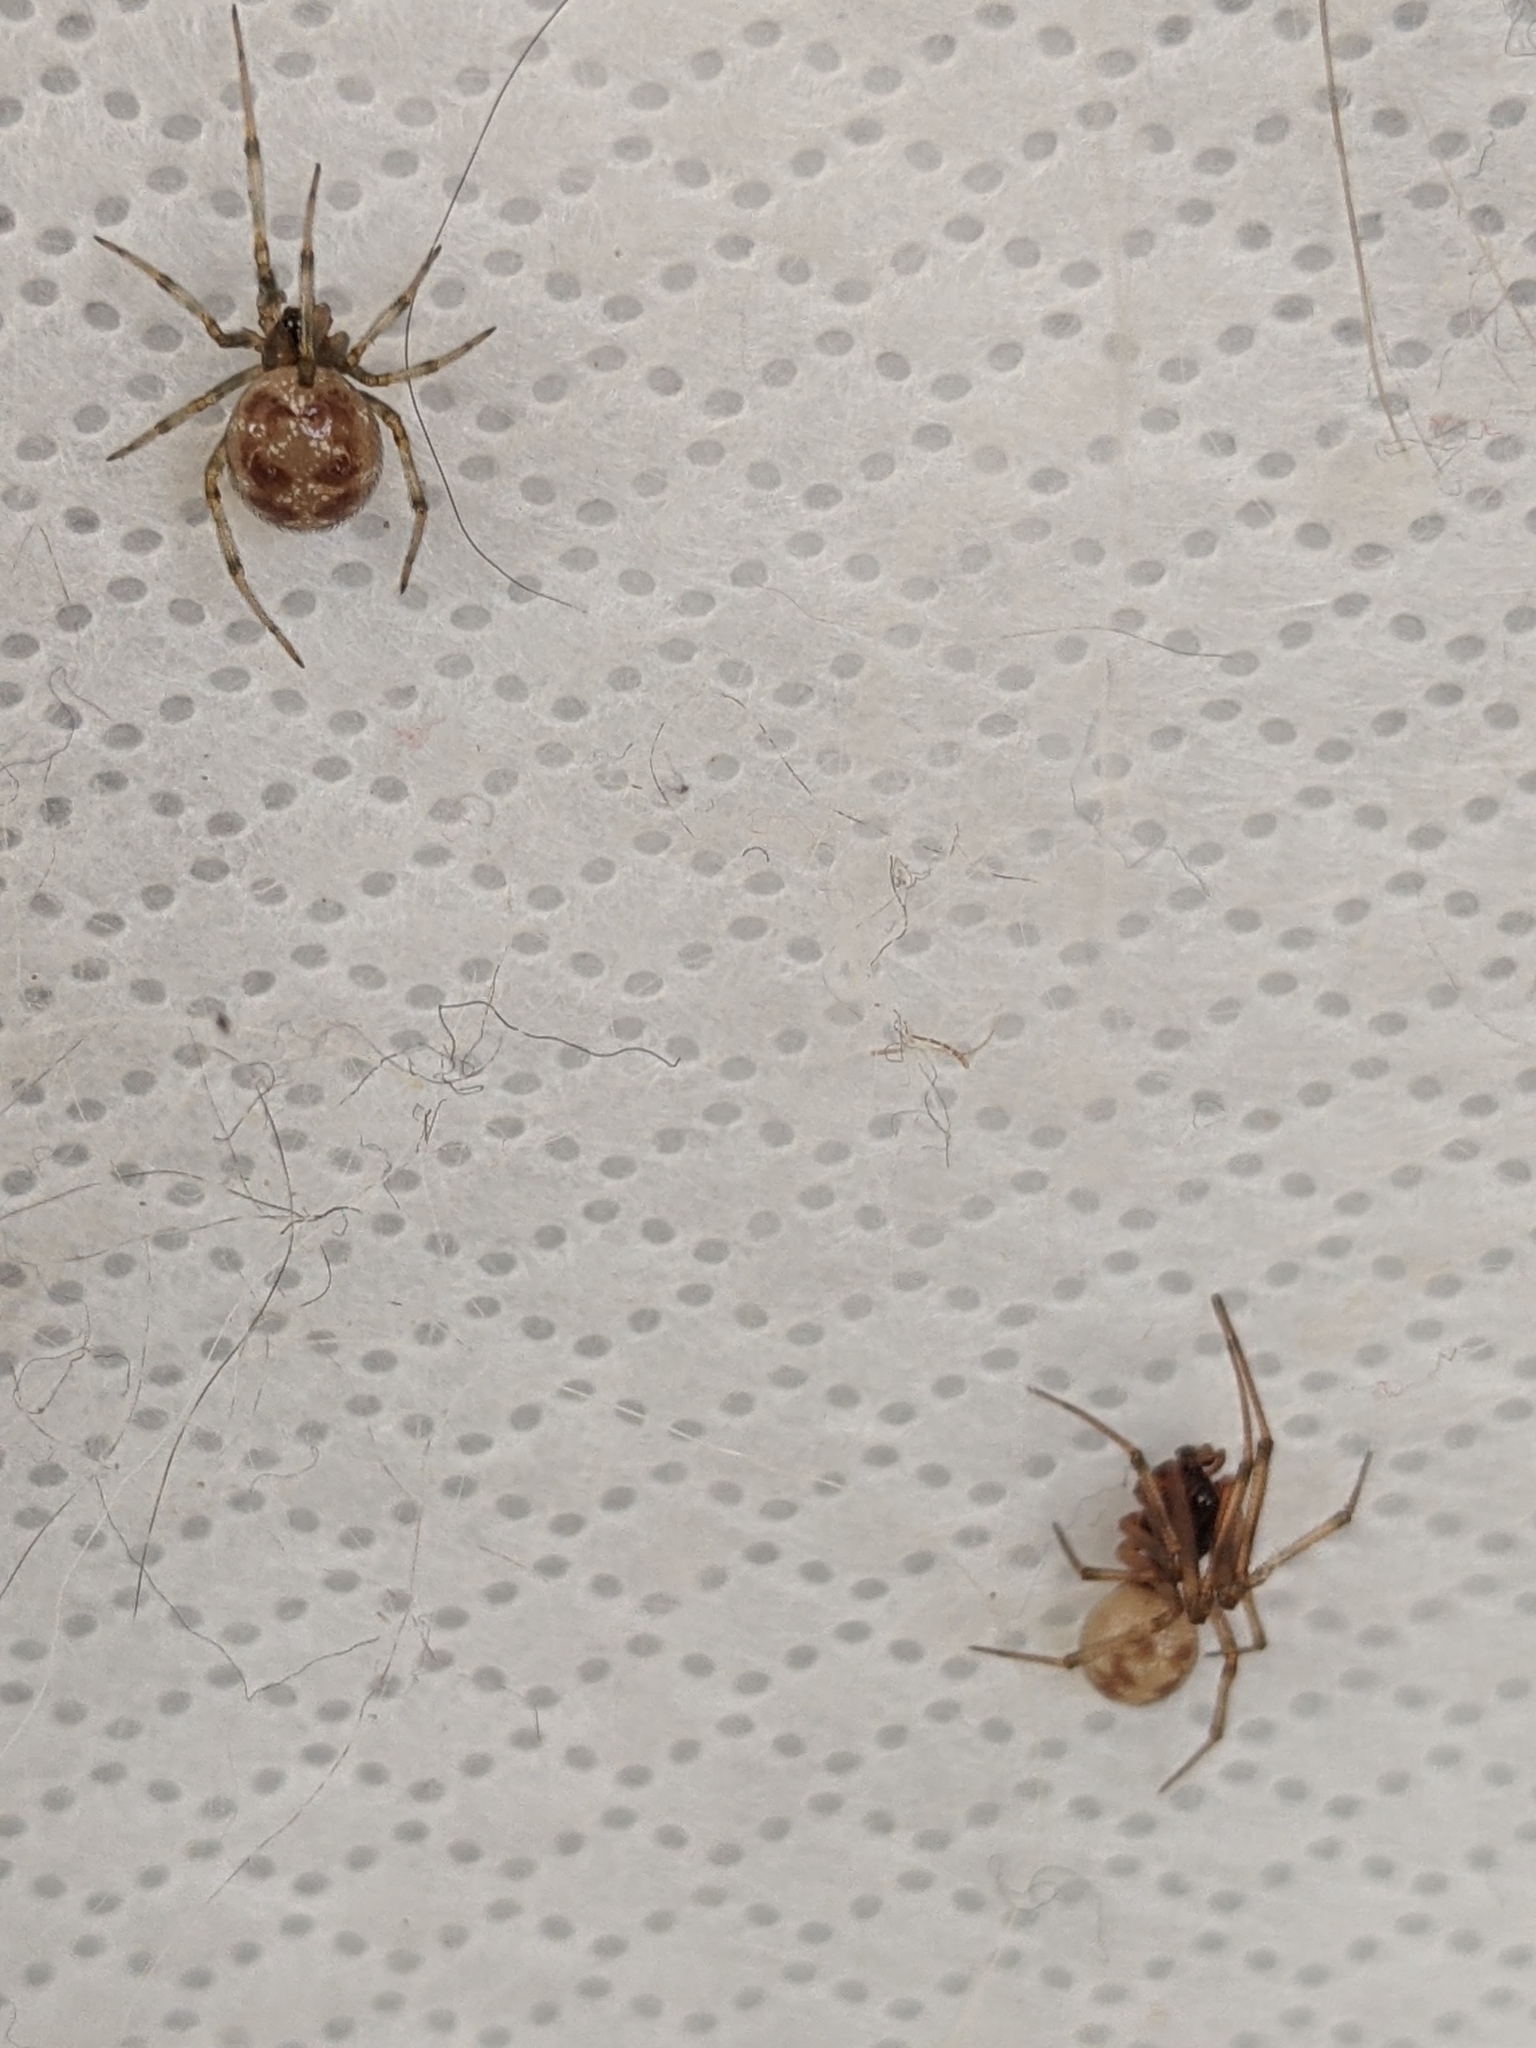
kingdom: Animalia
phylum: Arthropoda
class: Arachnida
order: Araneae
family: Theridiidae
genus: Steatoda
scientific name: Steatoda triangulosa
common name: Triangulate bud spider
